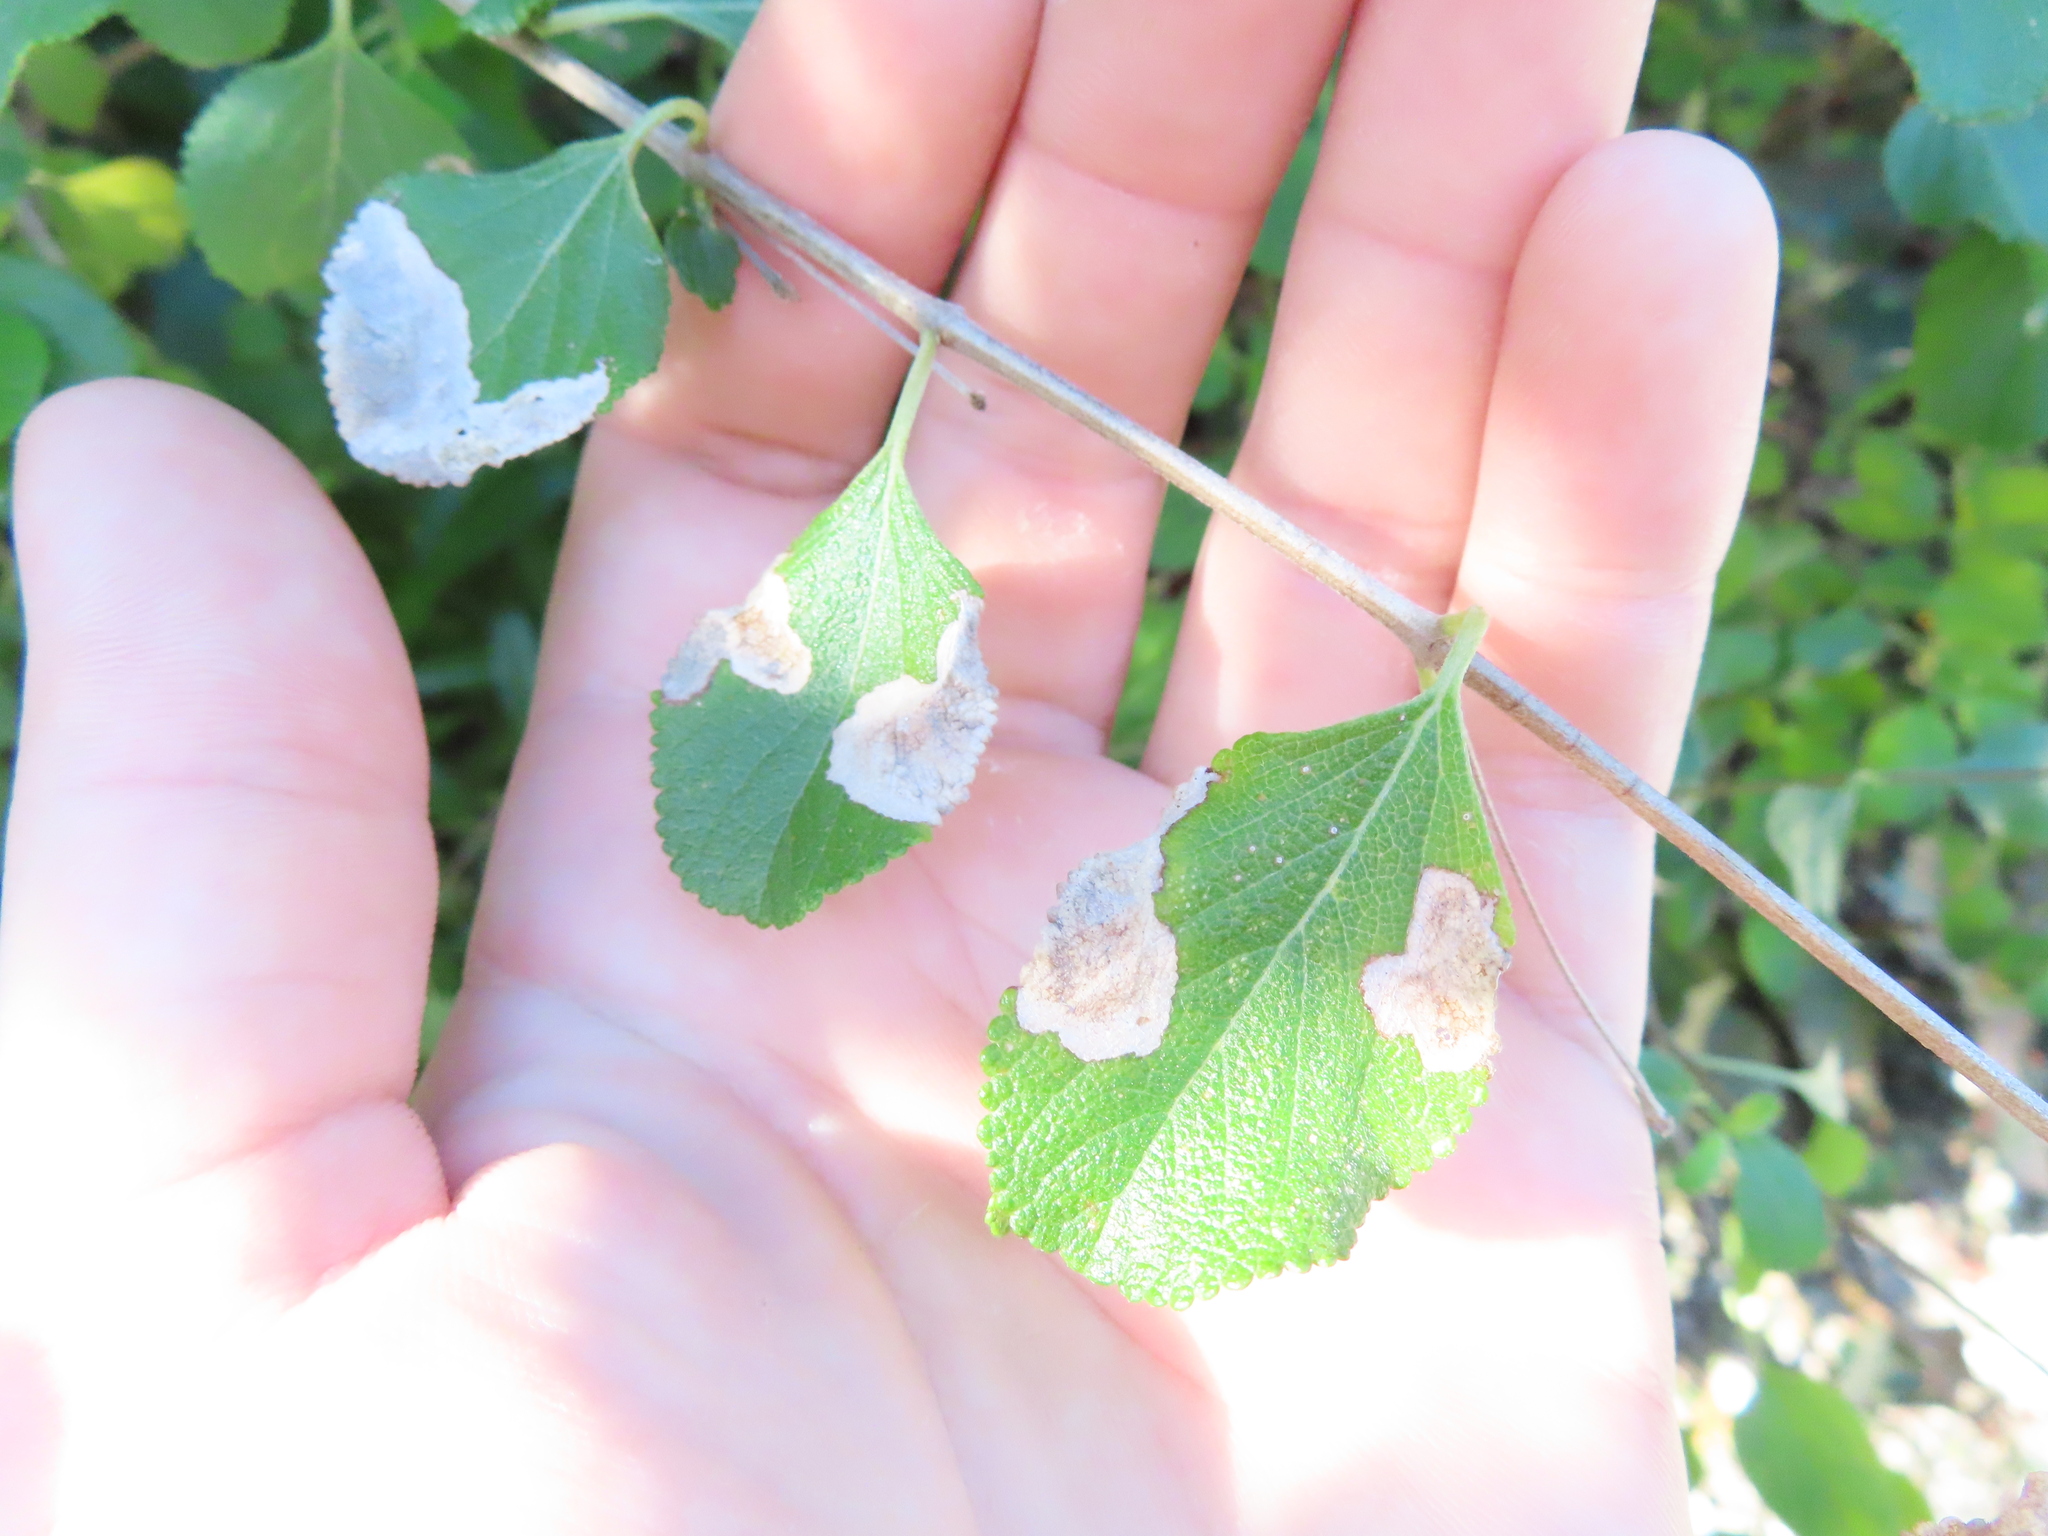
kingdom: Animalia
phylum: Arthropoda
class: Insecta
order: Diptera
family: Agromyzidae
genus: Calycomyza
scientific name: Calycomyza lantanae
